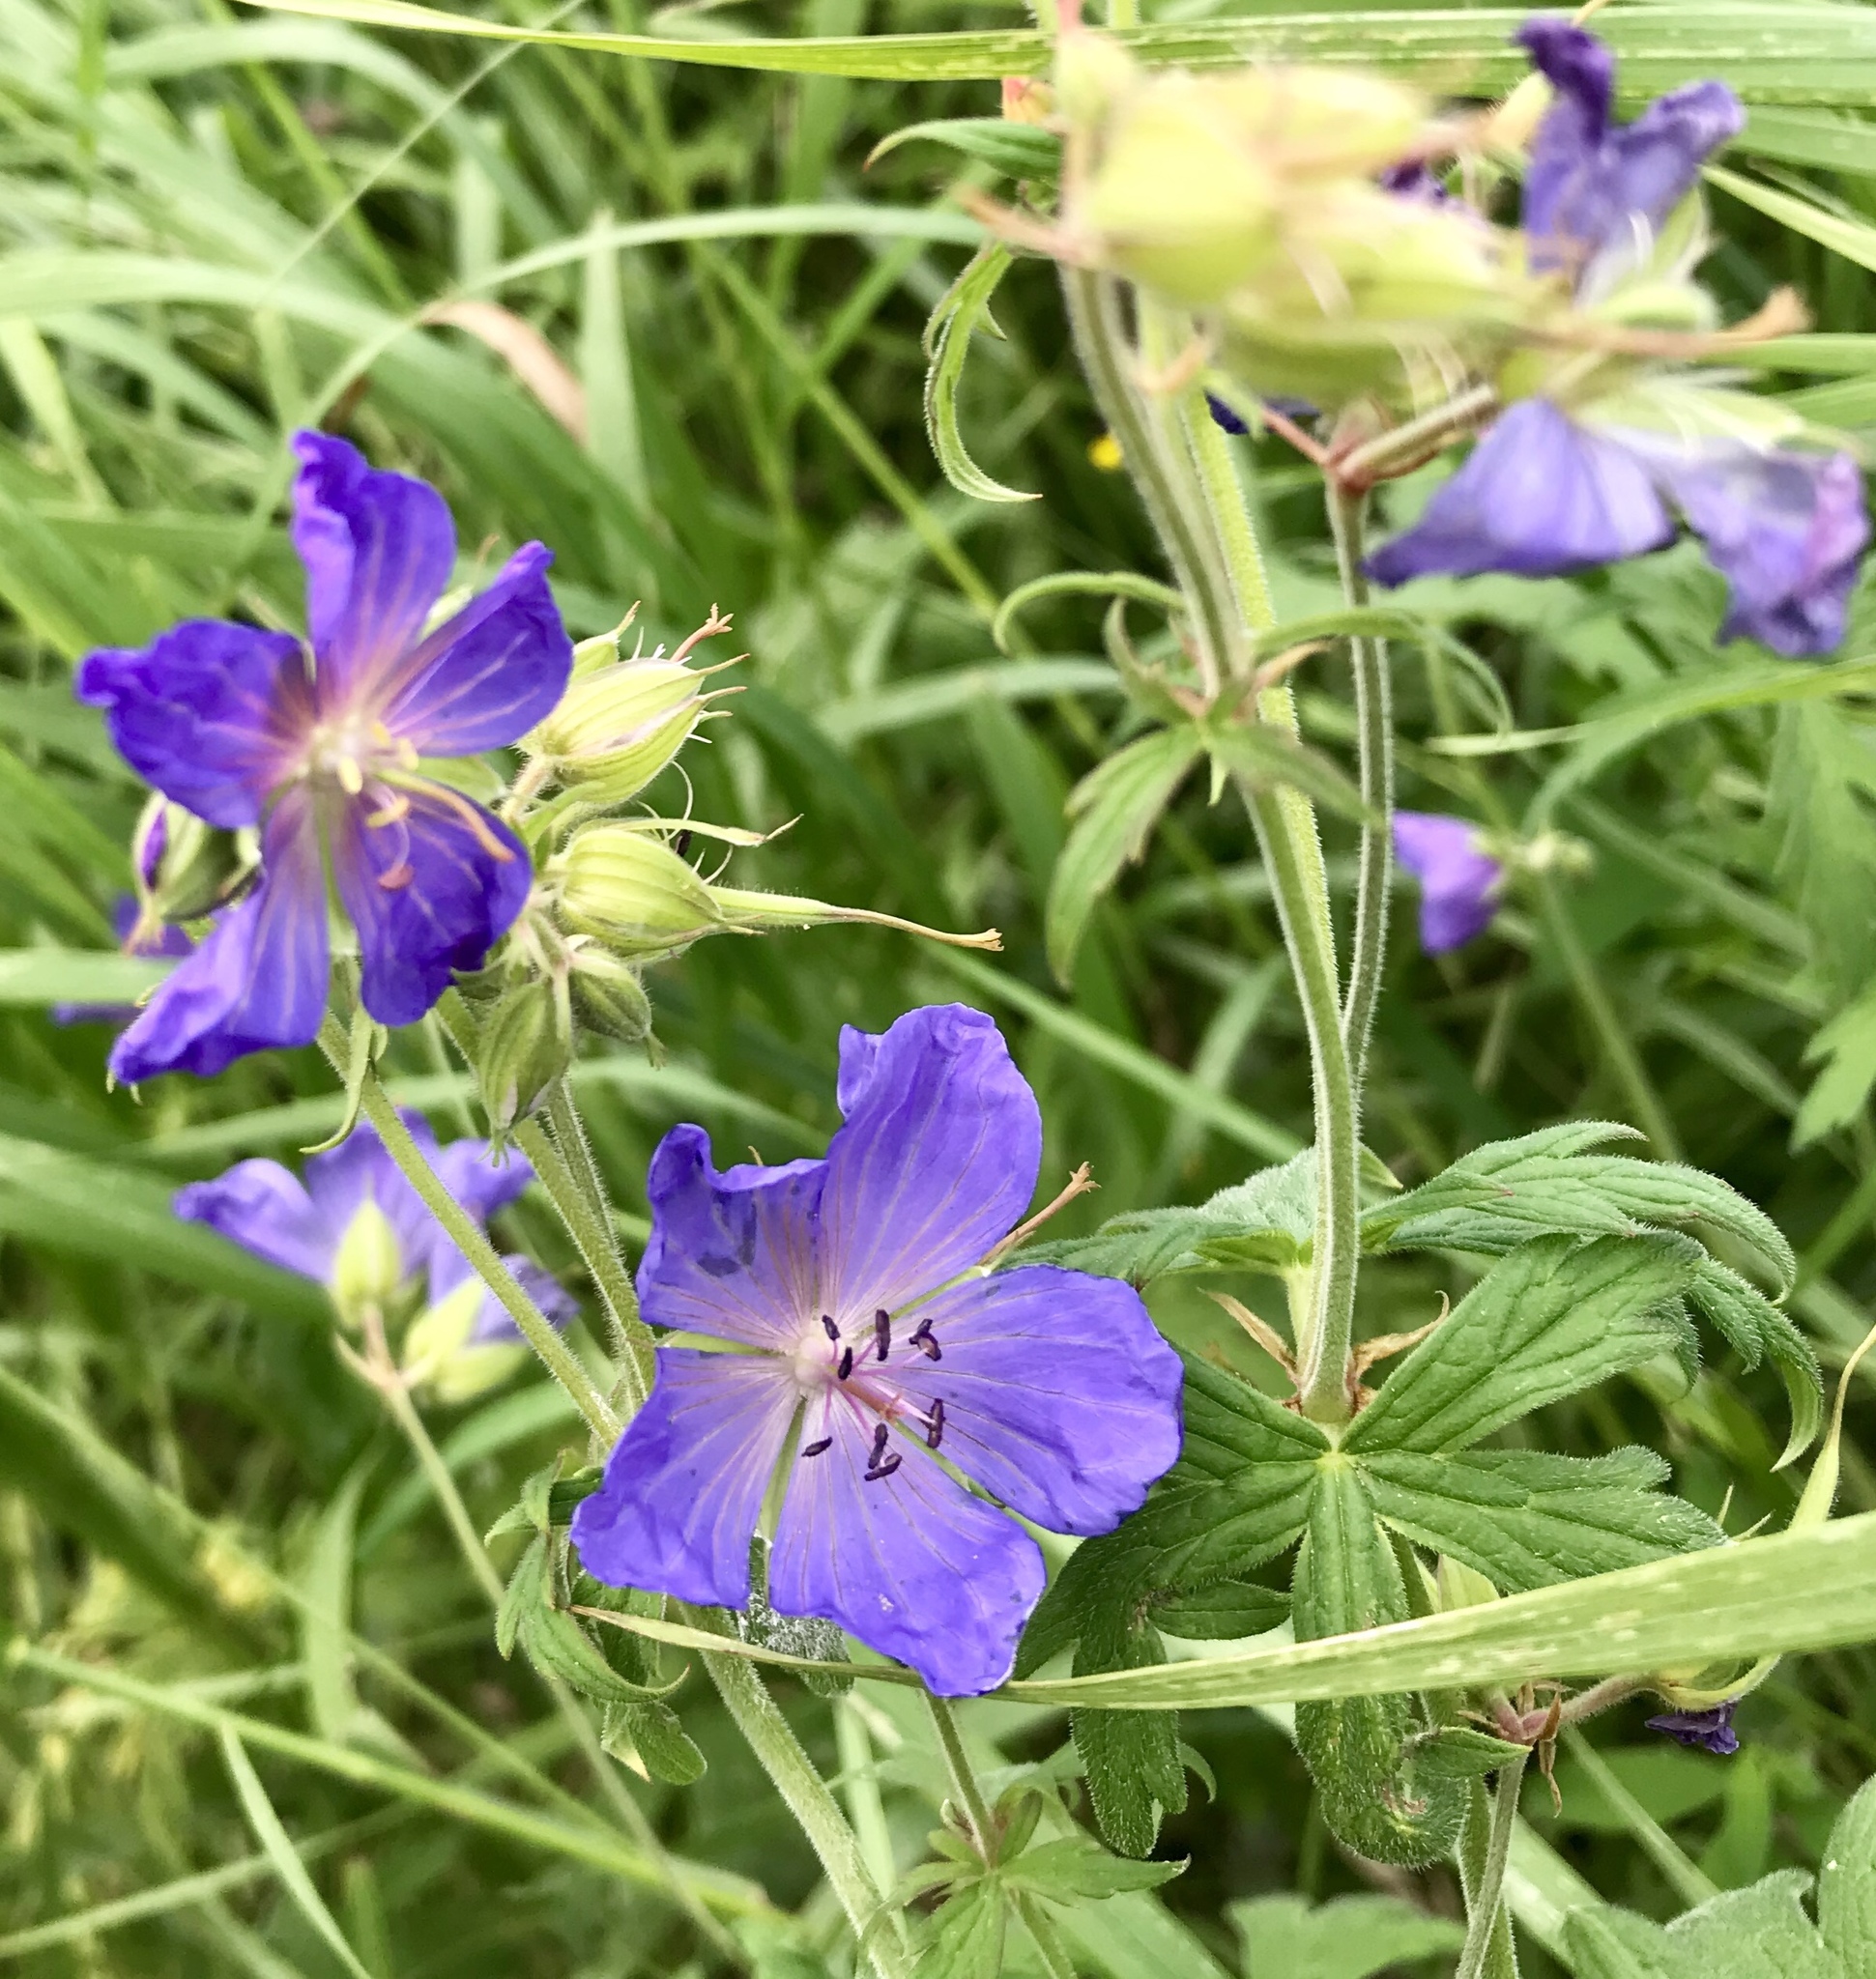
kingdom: Plantae
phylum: Tracheophyta
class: Magnoliopsida
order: Geraniales
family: Geraniaceae
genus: Geranium
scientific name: Geranium pratense
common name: Meadow crane's-bill
